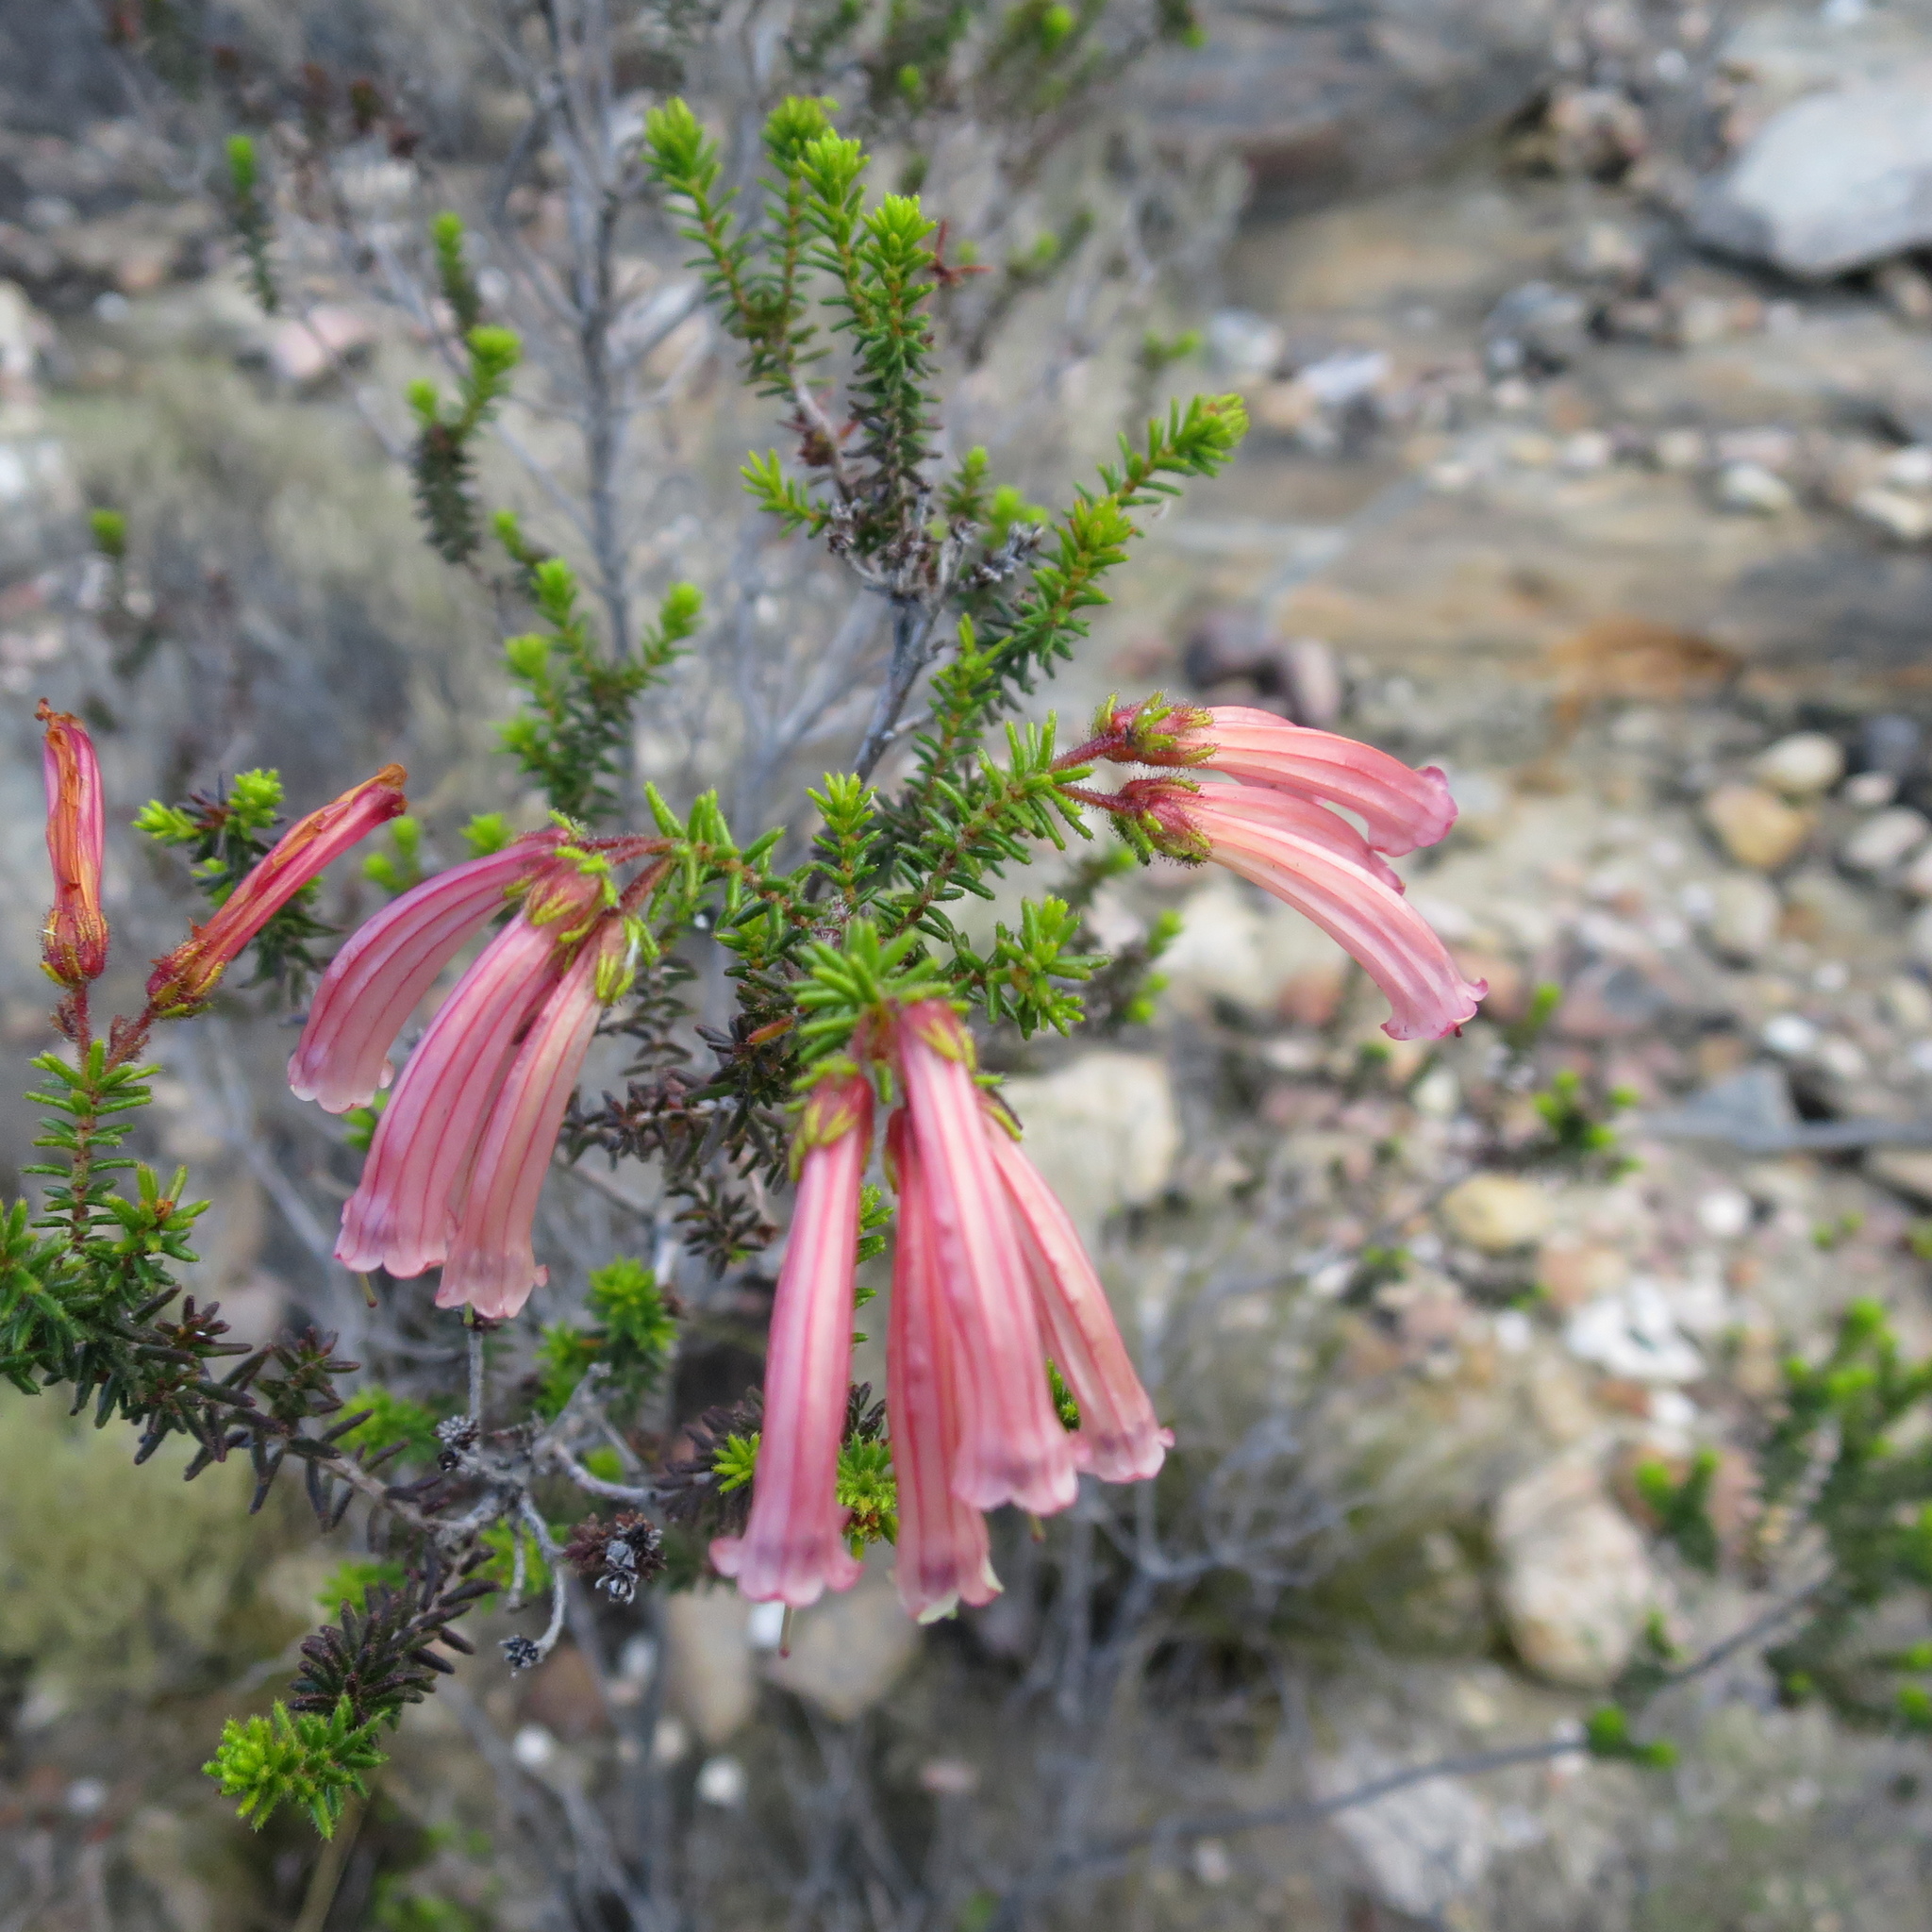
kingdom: Plantae
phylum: Tracheophyta
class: Magnoliopsida
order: Ericales
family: Ericaceae
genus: Erica
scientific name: Erica glandulosa
